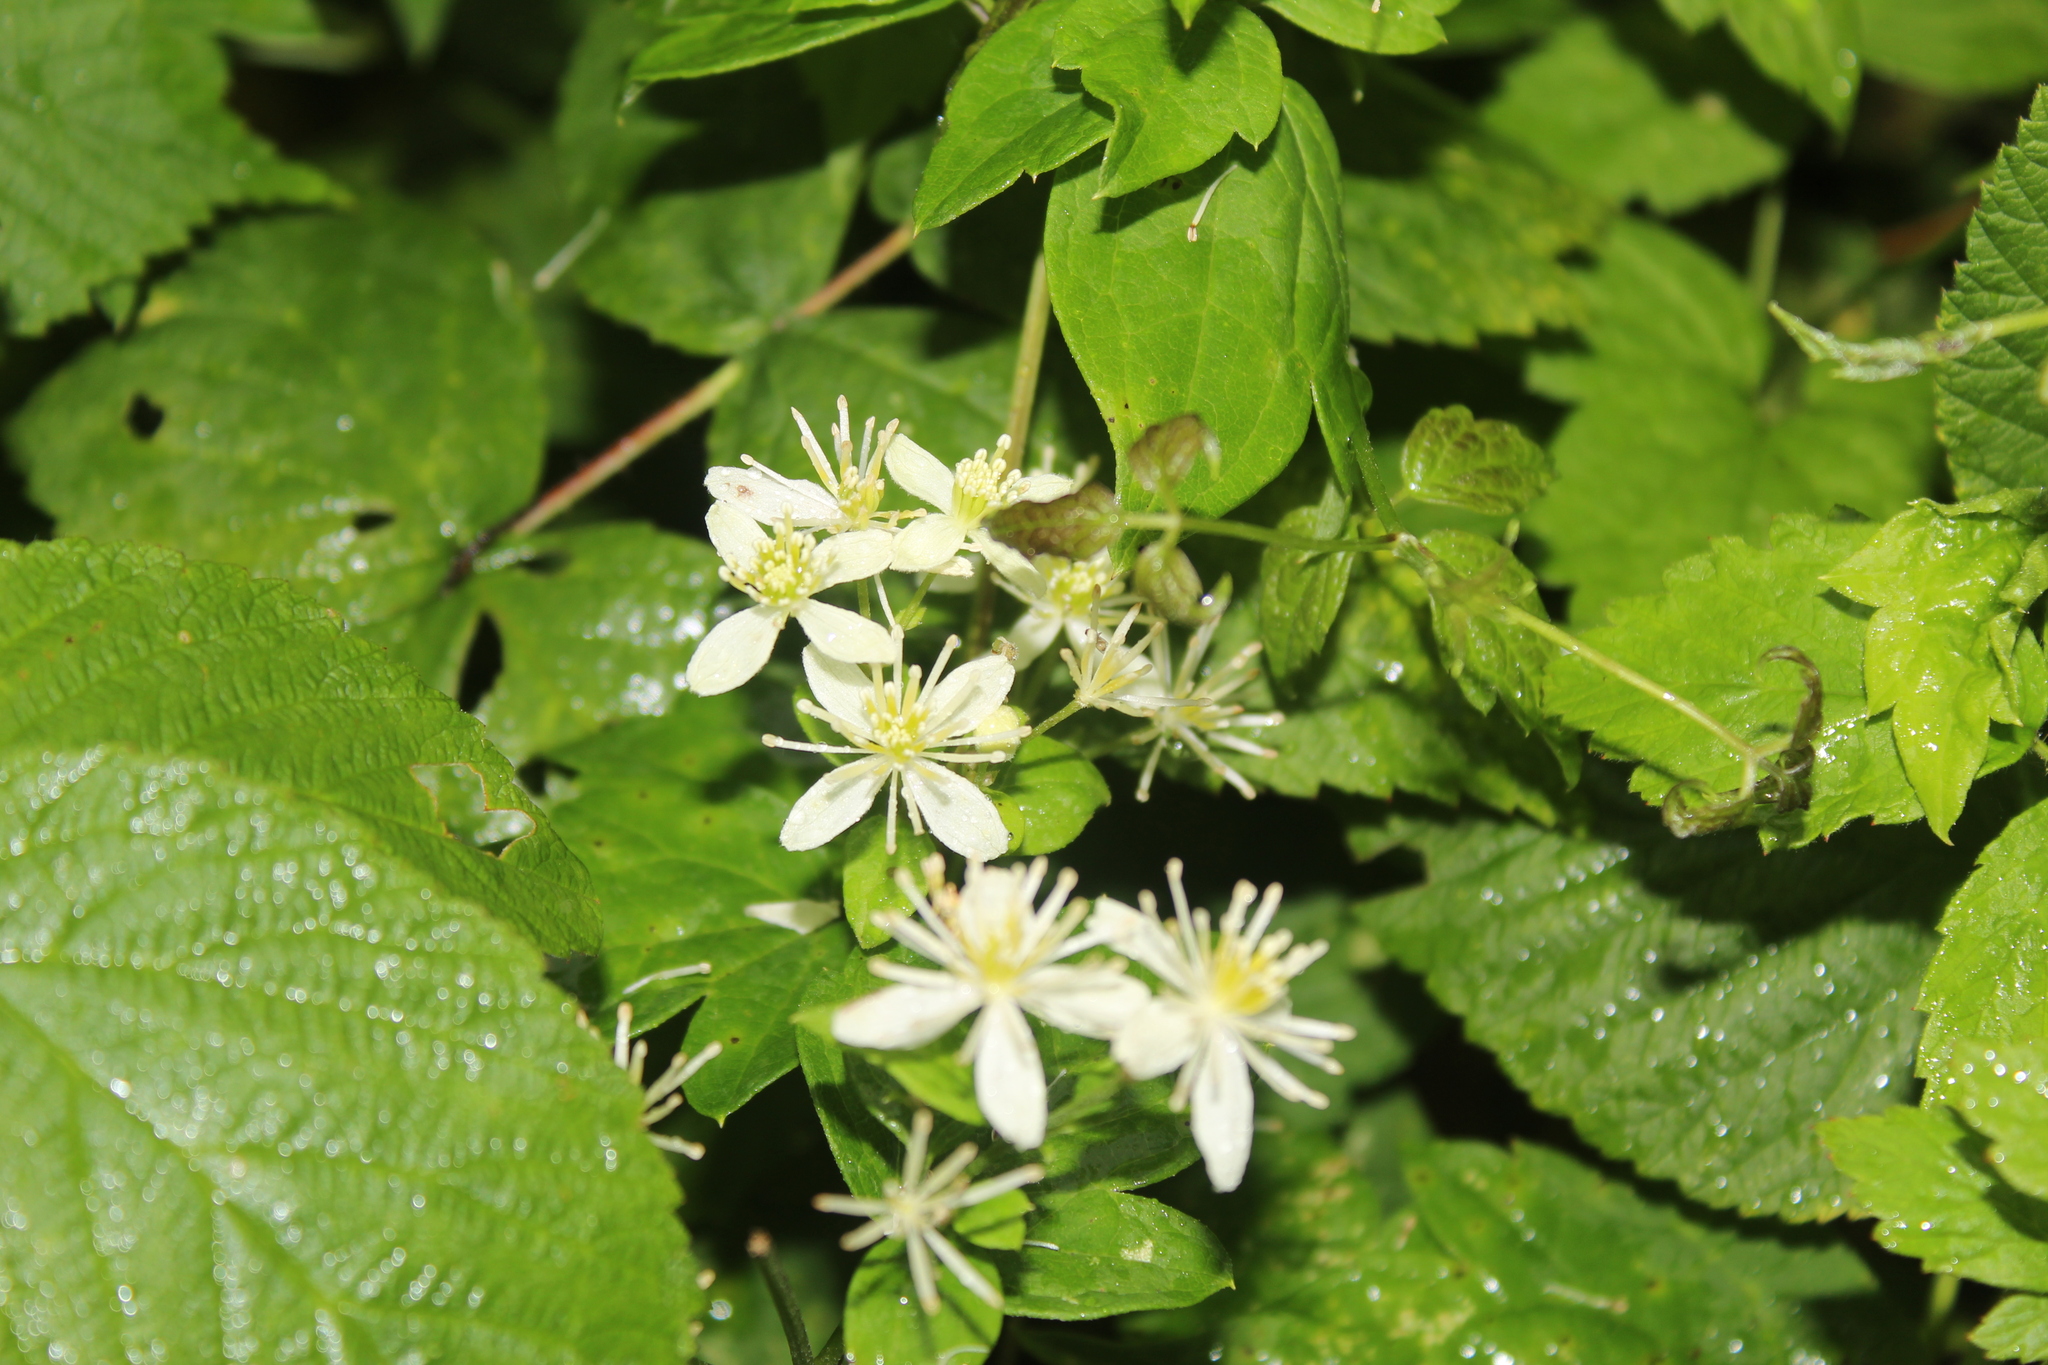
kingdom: Plantae
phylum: Tracheophyta
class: Magnoliopsida
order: Ranunculales
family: Ranunculaceae
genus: Clematis
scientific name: Clematis virginiana
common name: Virgin's-bower
